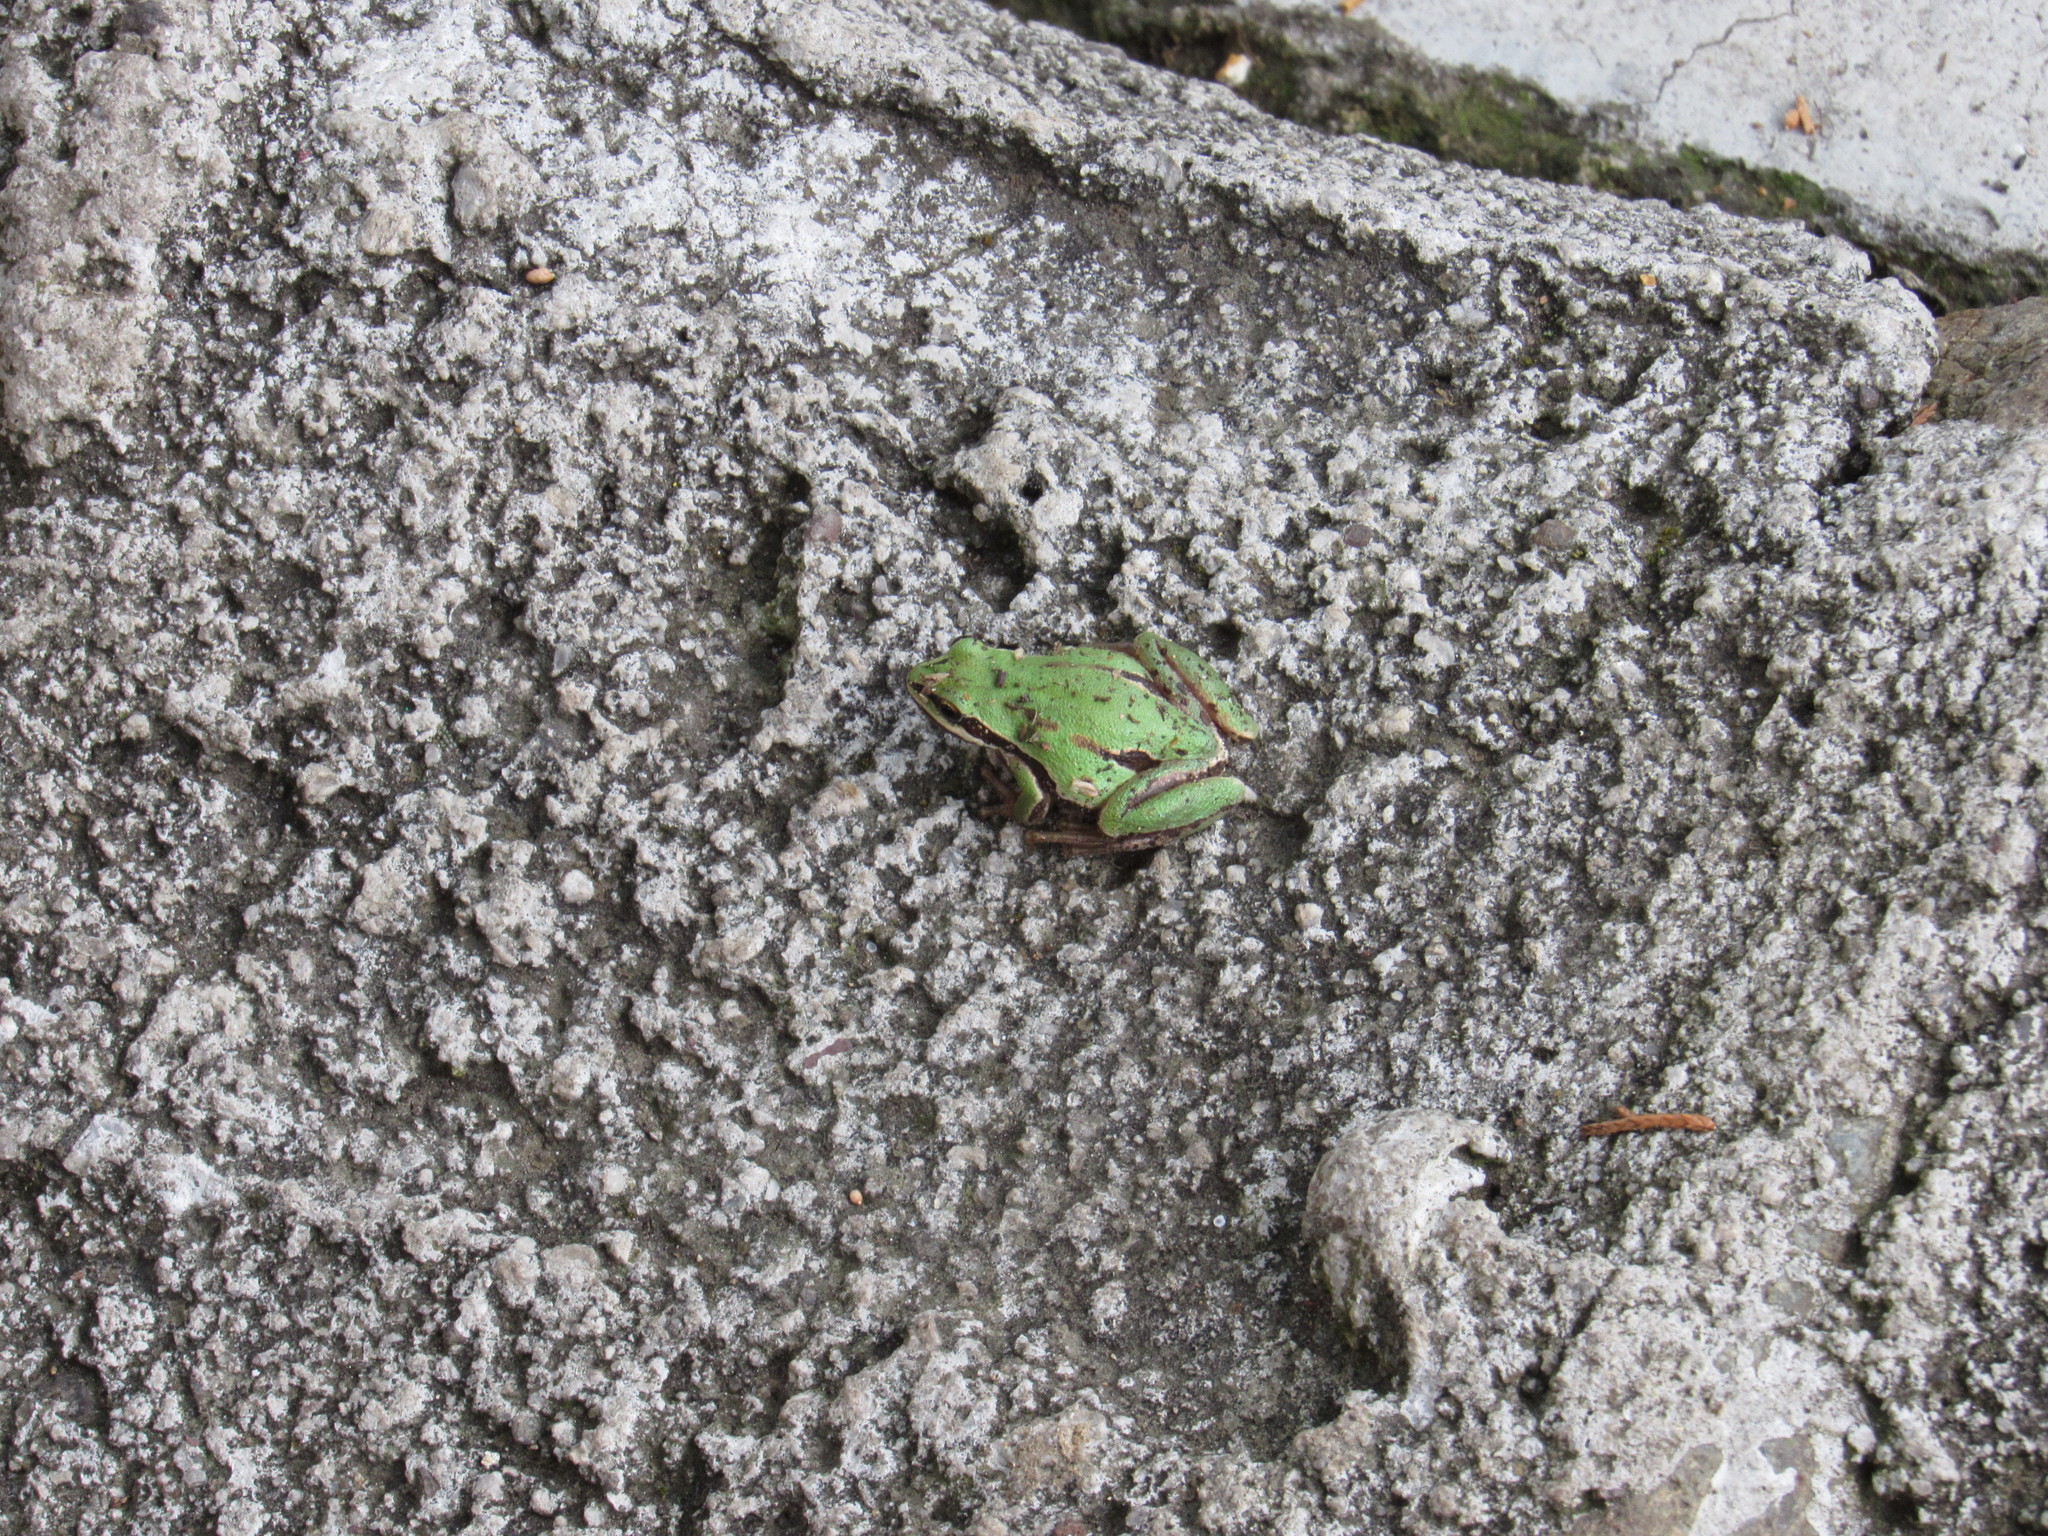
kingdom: Animalia
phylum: Chordata
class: Amphibia
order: Anura
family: Hylidae
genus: Dryophytes
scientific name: Dryophytes eximius
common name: Mountain treefrog
